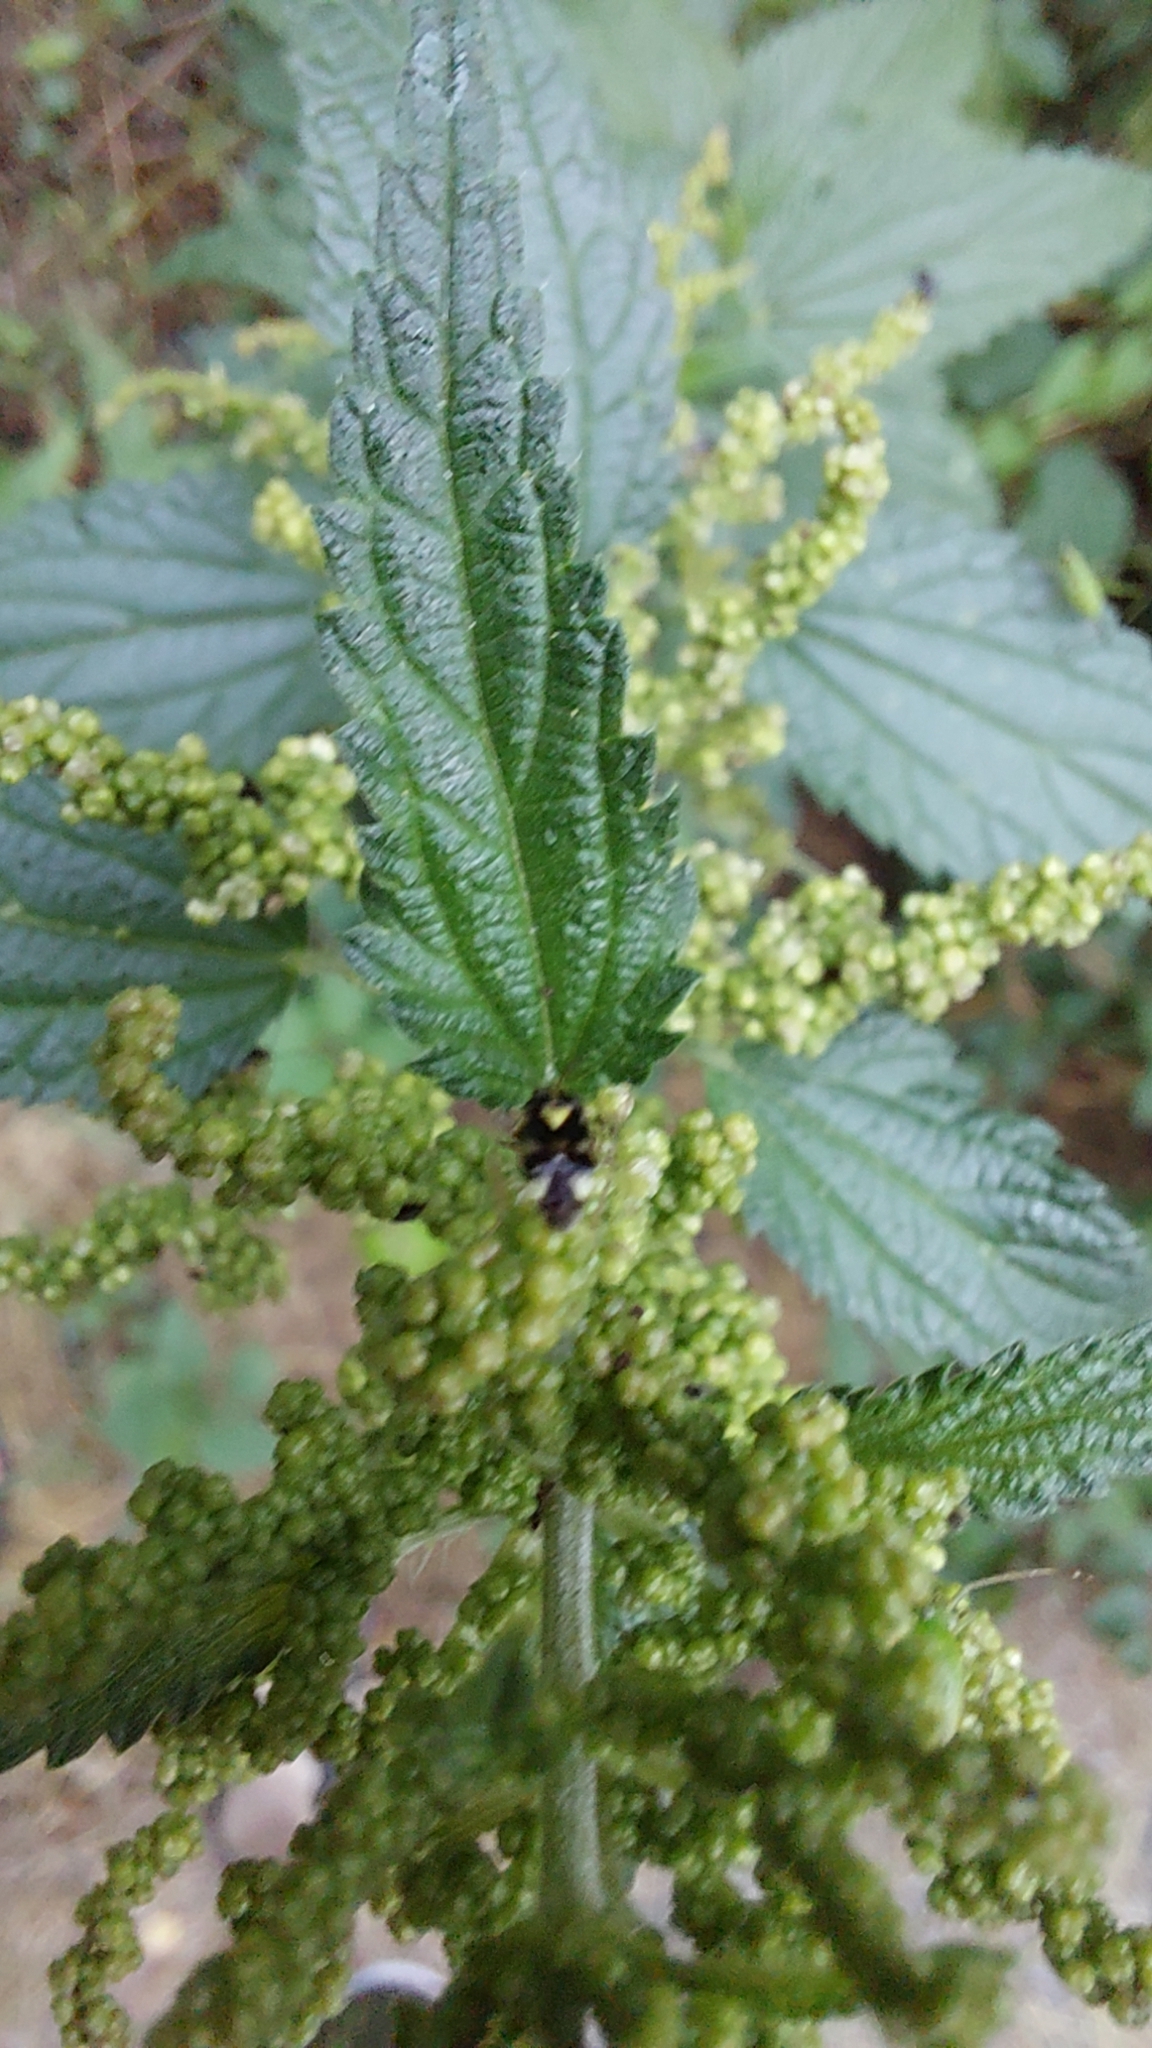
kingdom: Animalia
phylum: Arthropoda
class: Insecta
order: Hemiptera
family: Miridae
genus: Liocoris
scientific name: Liocoris tripustulatus
